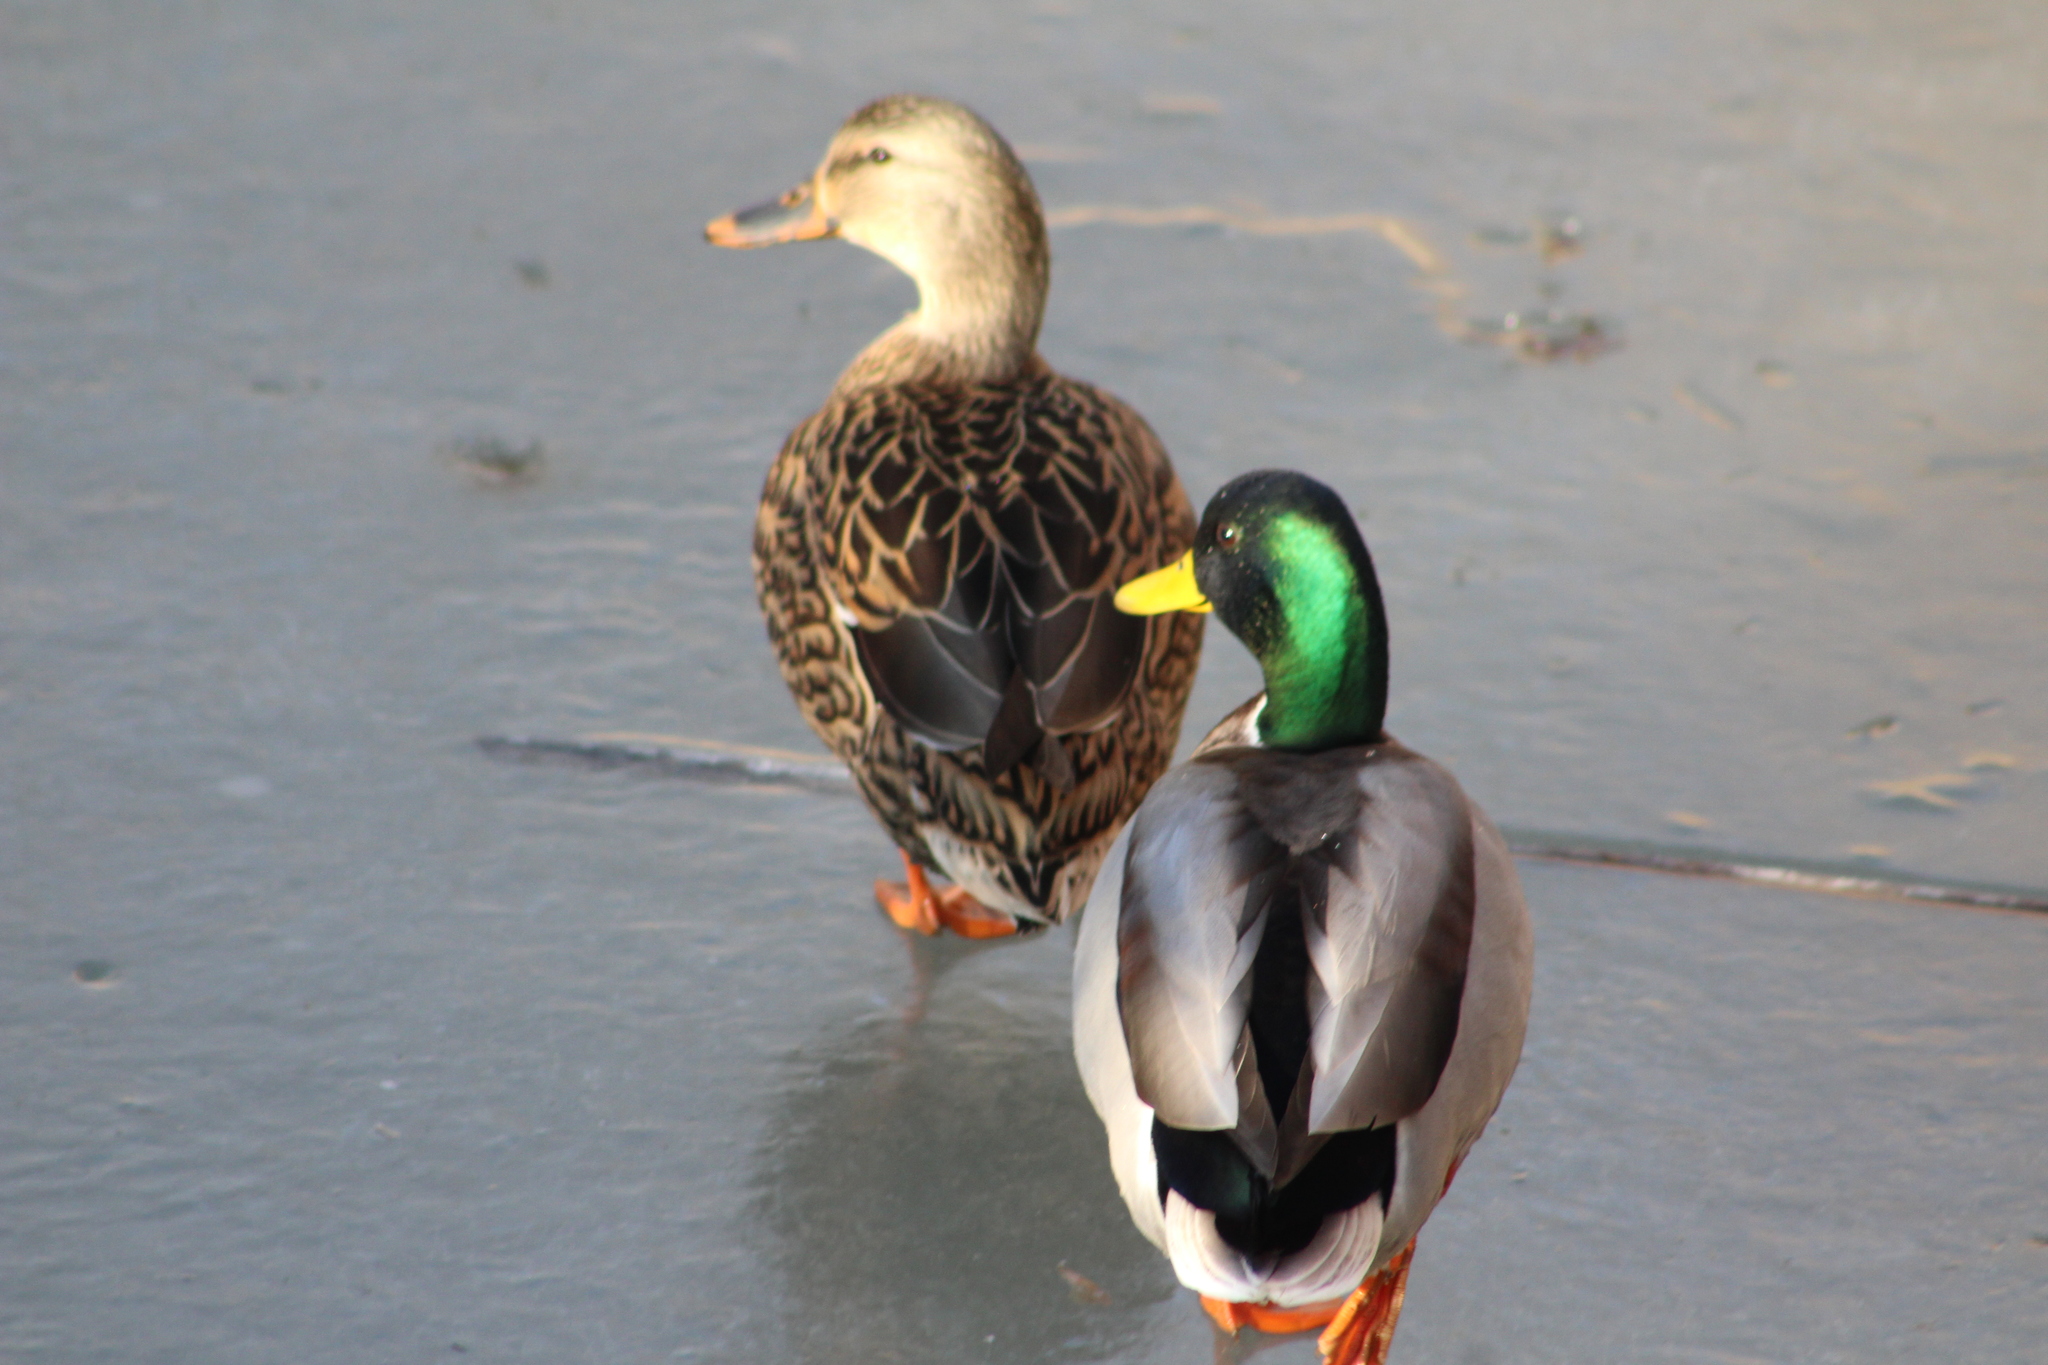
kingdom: Animalia
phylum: Chordata
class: Aves
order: Anseriformes
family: Anatidae
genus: Anas
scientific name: Anas platyrhynchos
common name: Mallard
